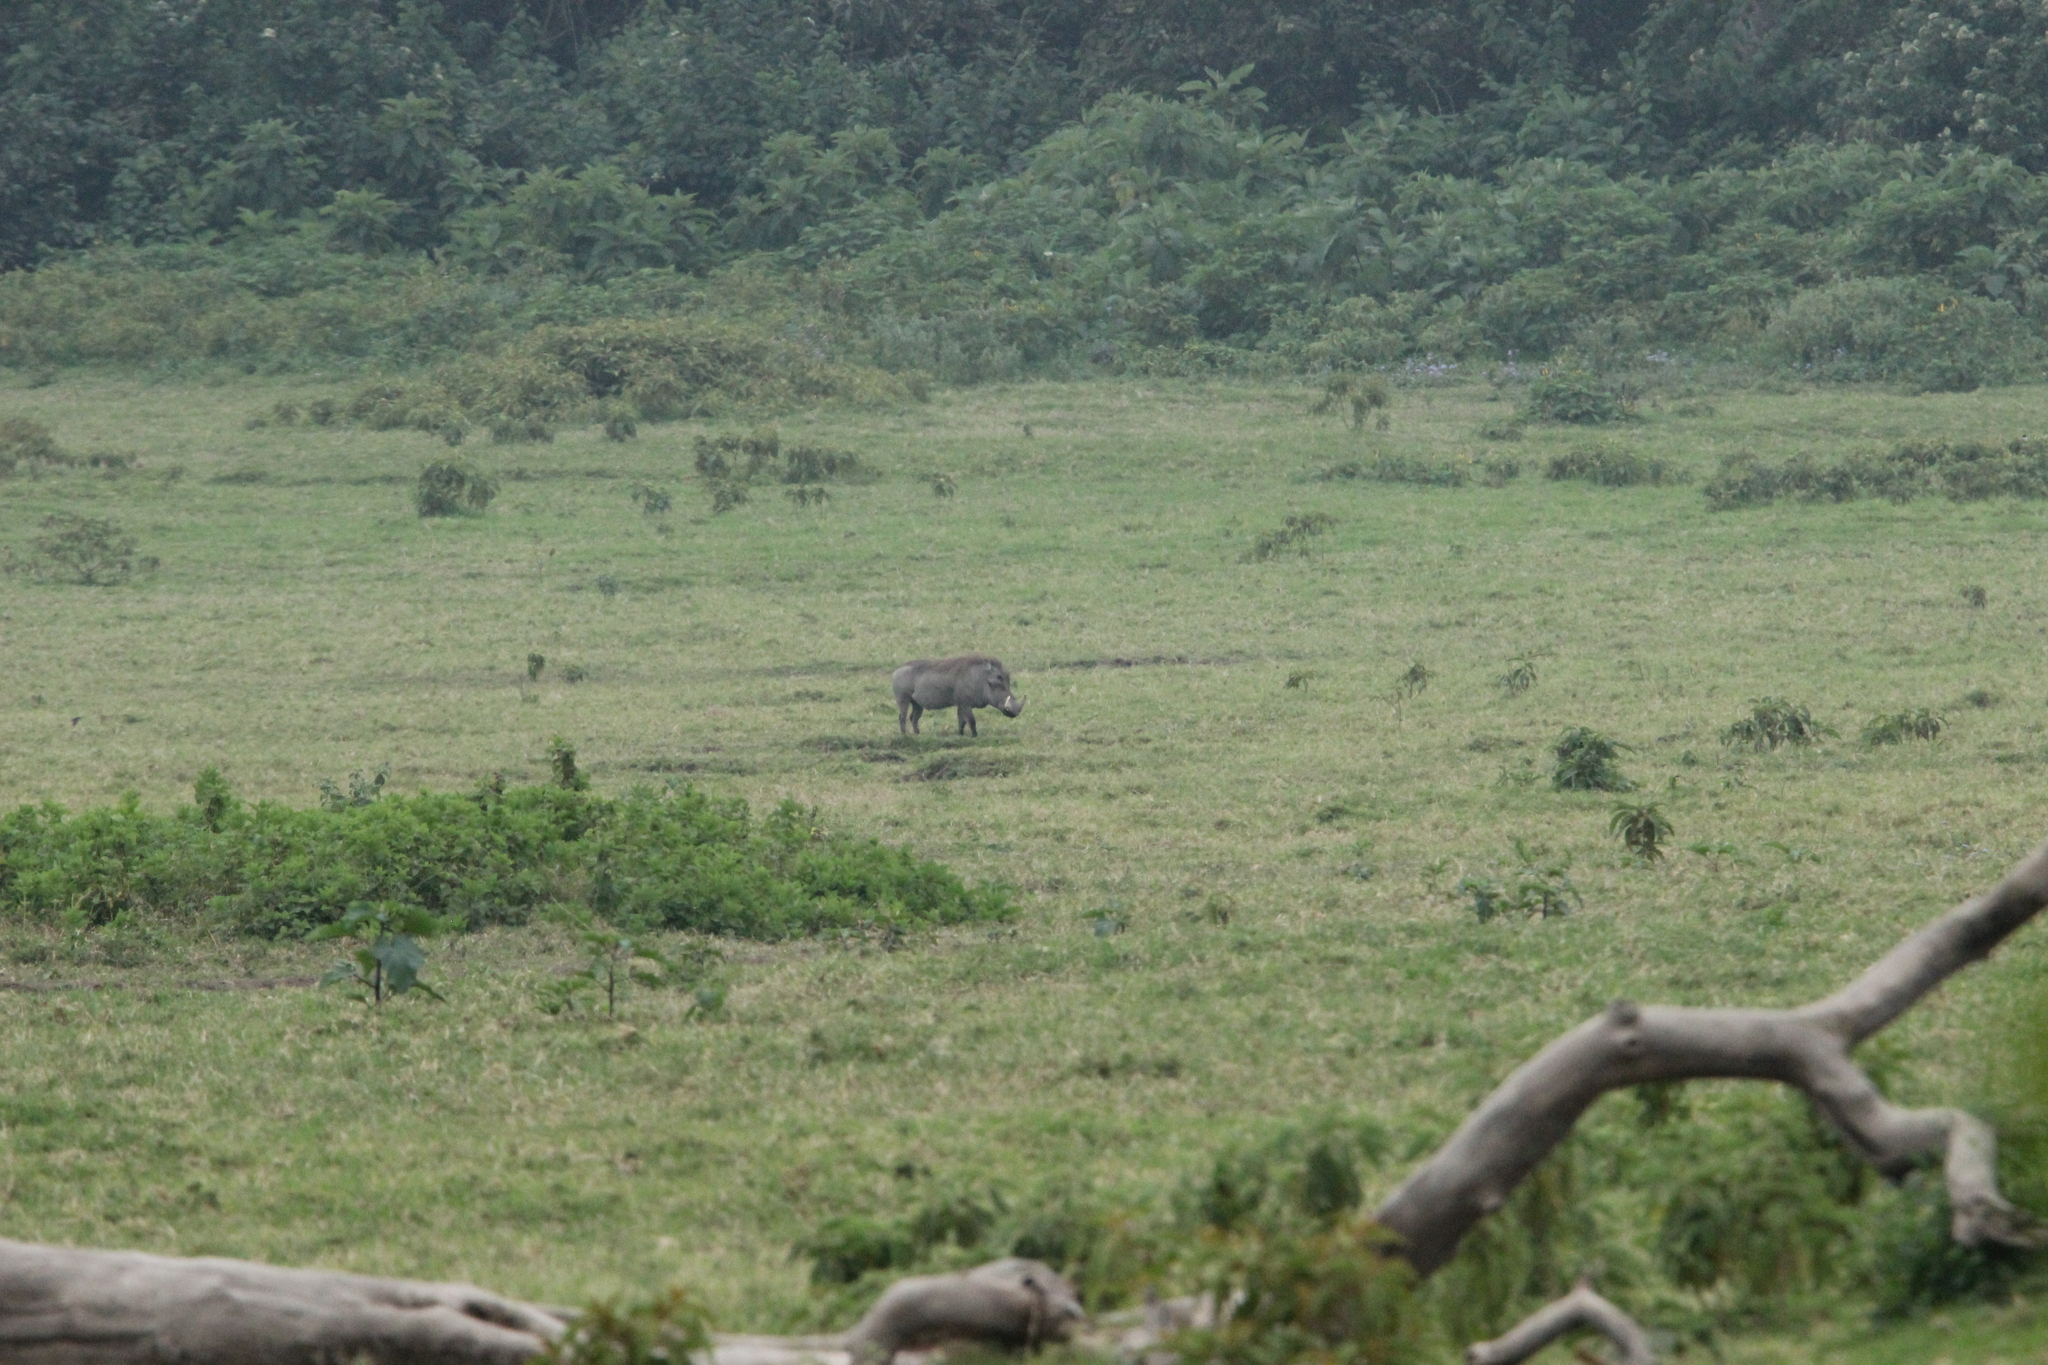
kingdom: Animalia
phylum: Chordata
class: Mammalia
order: Artiodactyla
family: Suidae
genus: Phacochoerus
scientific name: Phacochoerus africanus
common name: Common warthog
